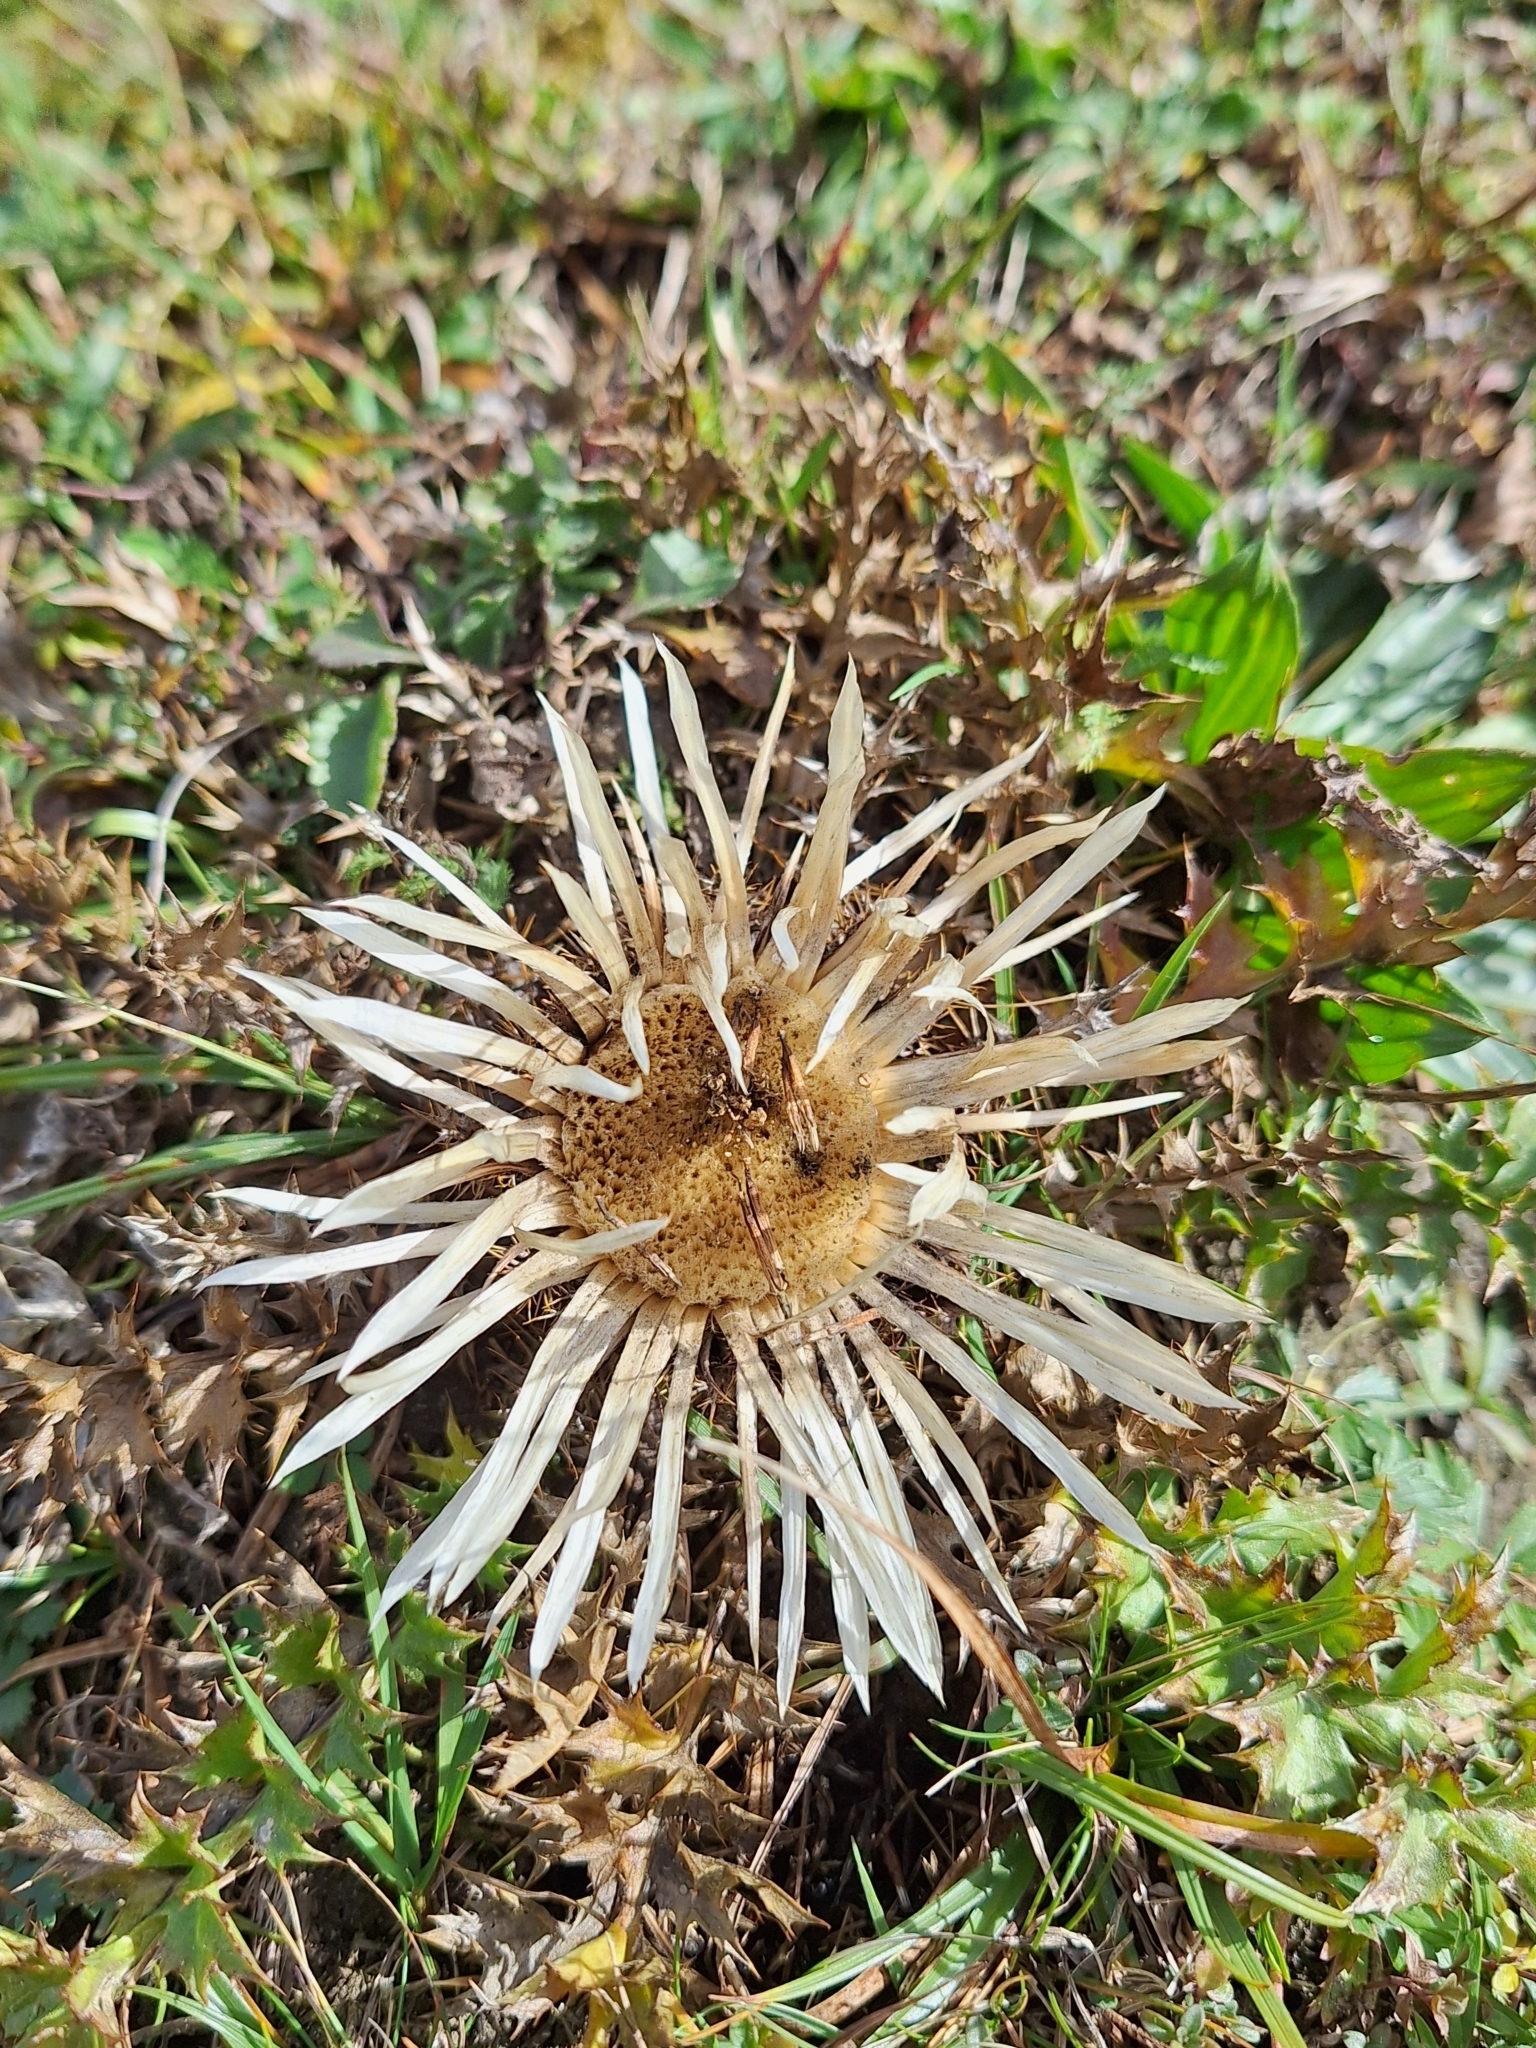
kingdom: Plantae
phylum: Tracheophyta
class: Magnoliopsida
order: Asterales
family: Asteraceae
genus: Carlina
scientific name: Carlina acaulis
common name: Stemless carline thistle
